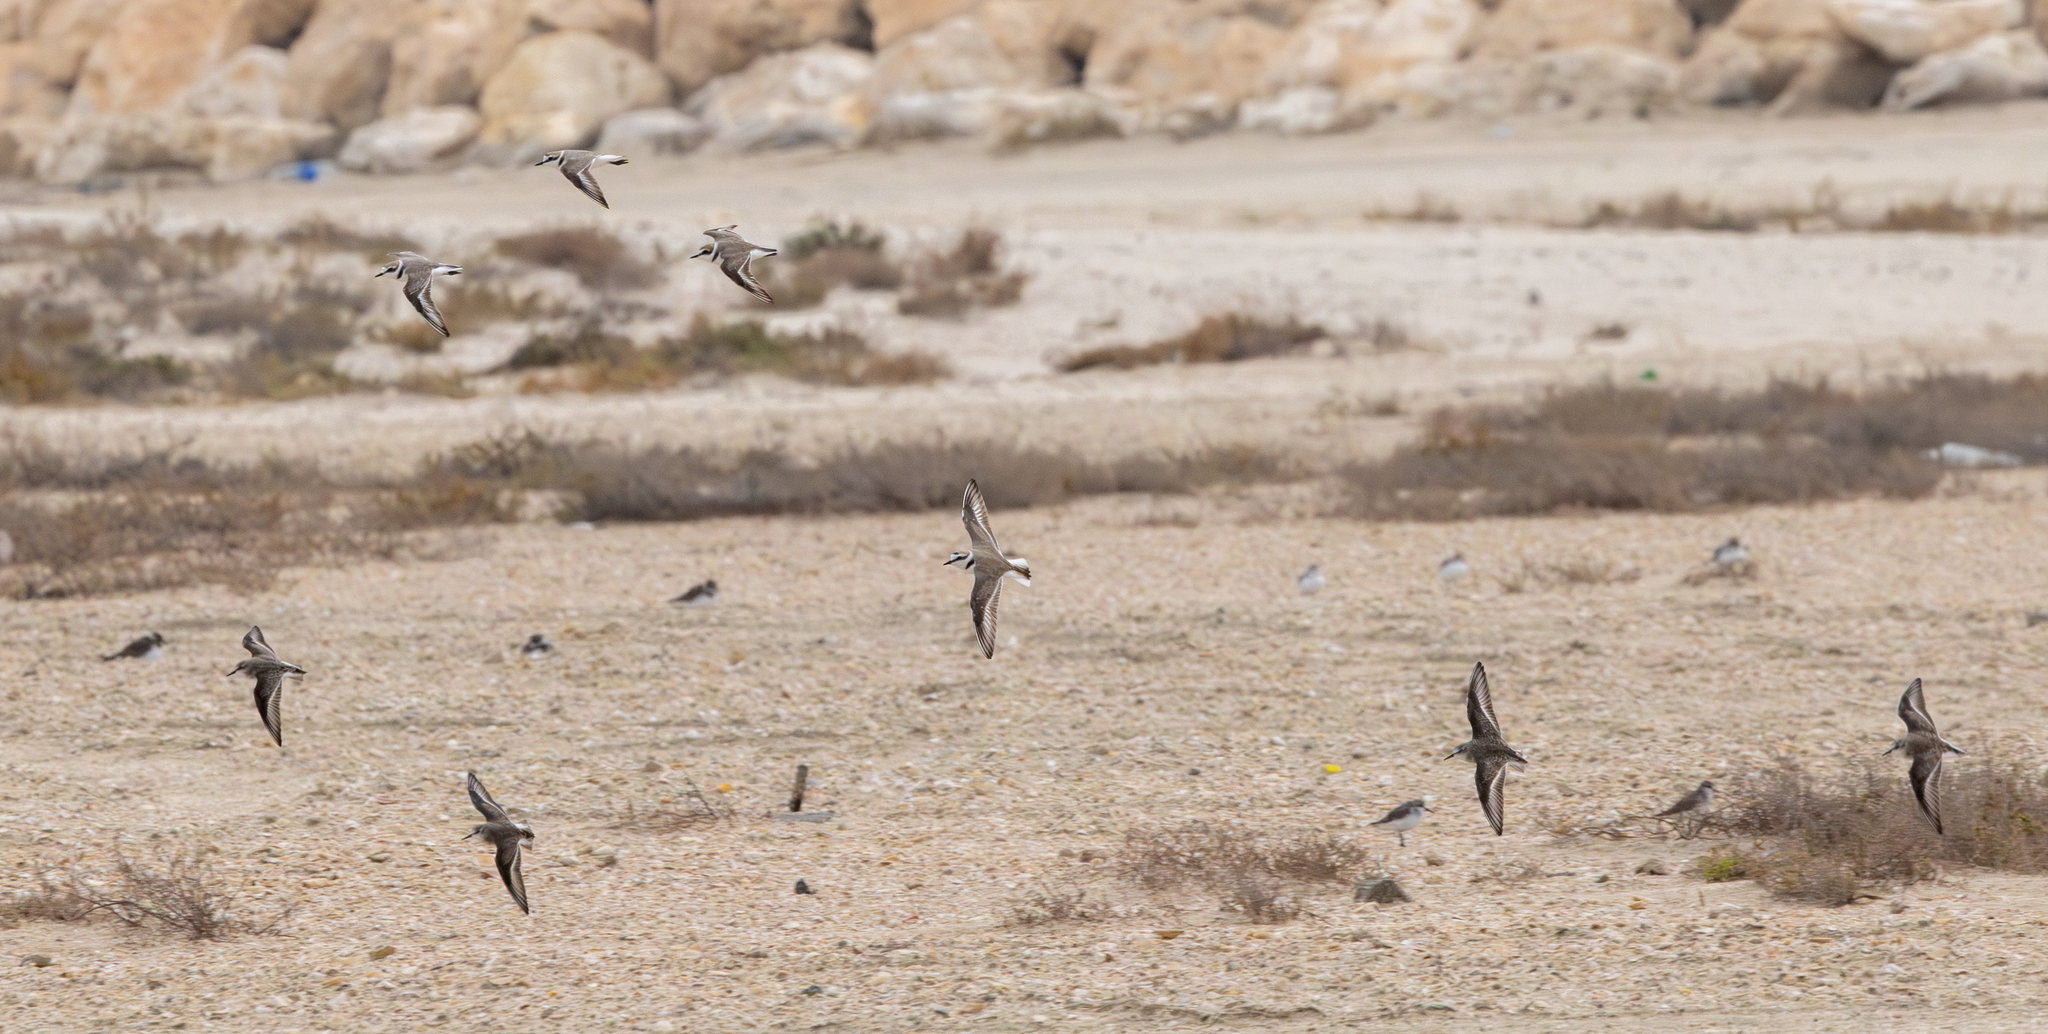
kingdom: Animalia
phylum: Chordata
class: Aves
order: Charadriiformes
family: Charadriidae
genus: Charadrius
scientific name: Charadrius alexandrinus
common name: Kentish plover
